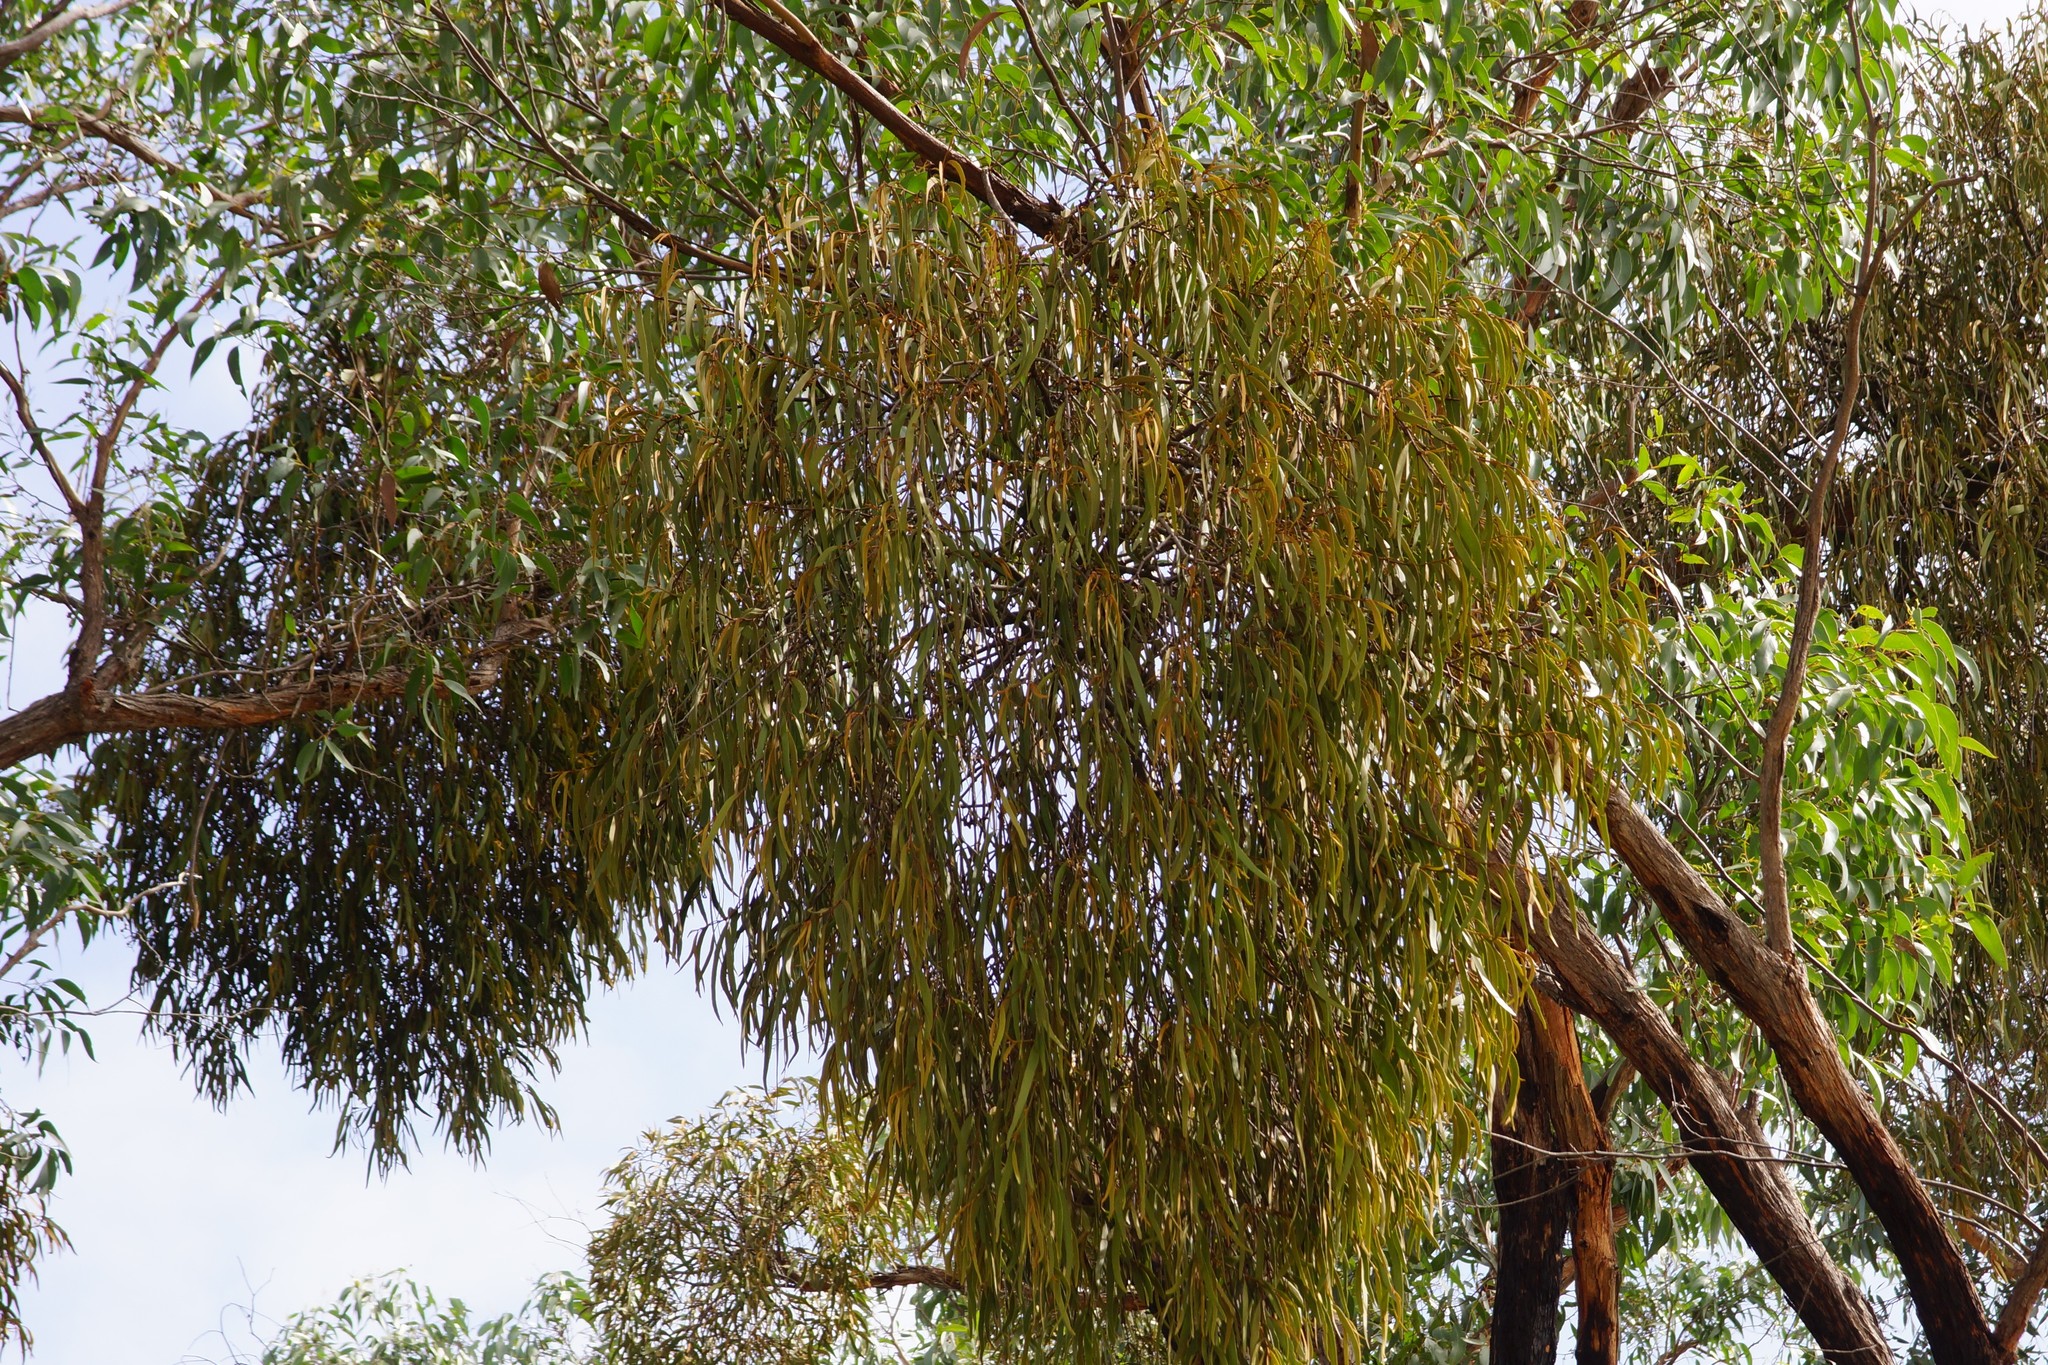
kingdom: Plantae
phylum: Tracheophyta
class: Magnoliopsida
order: Santalales
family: Loranthaceae
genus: Amyema
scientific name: Amyema pendula
